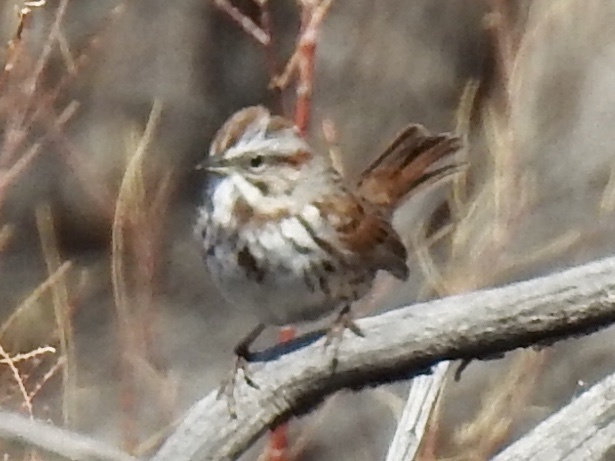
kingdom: Animalia
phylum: Chordata
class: Aves
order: Passeriformes
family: Passerellidae
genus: Melospiza
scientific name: Melospiza melodia
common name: Song sparrow
